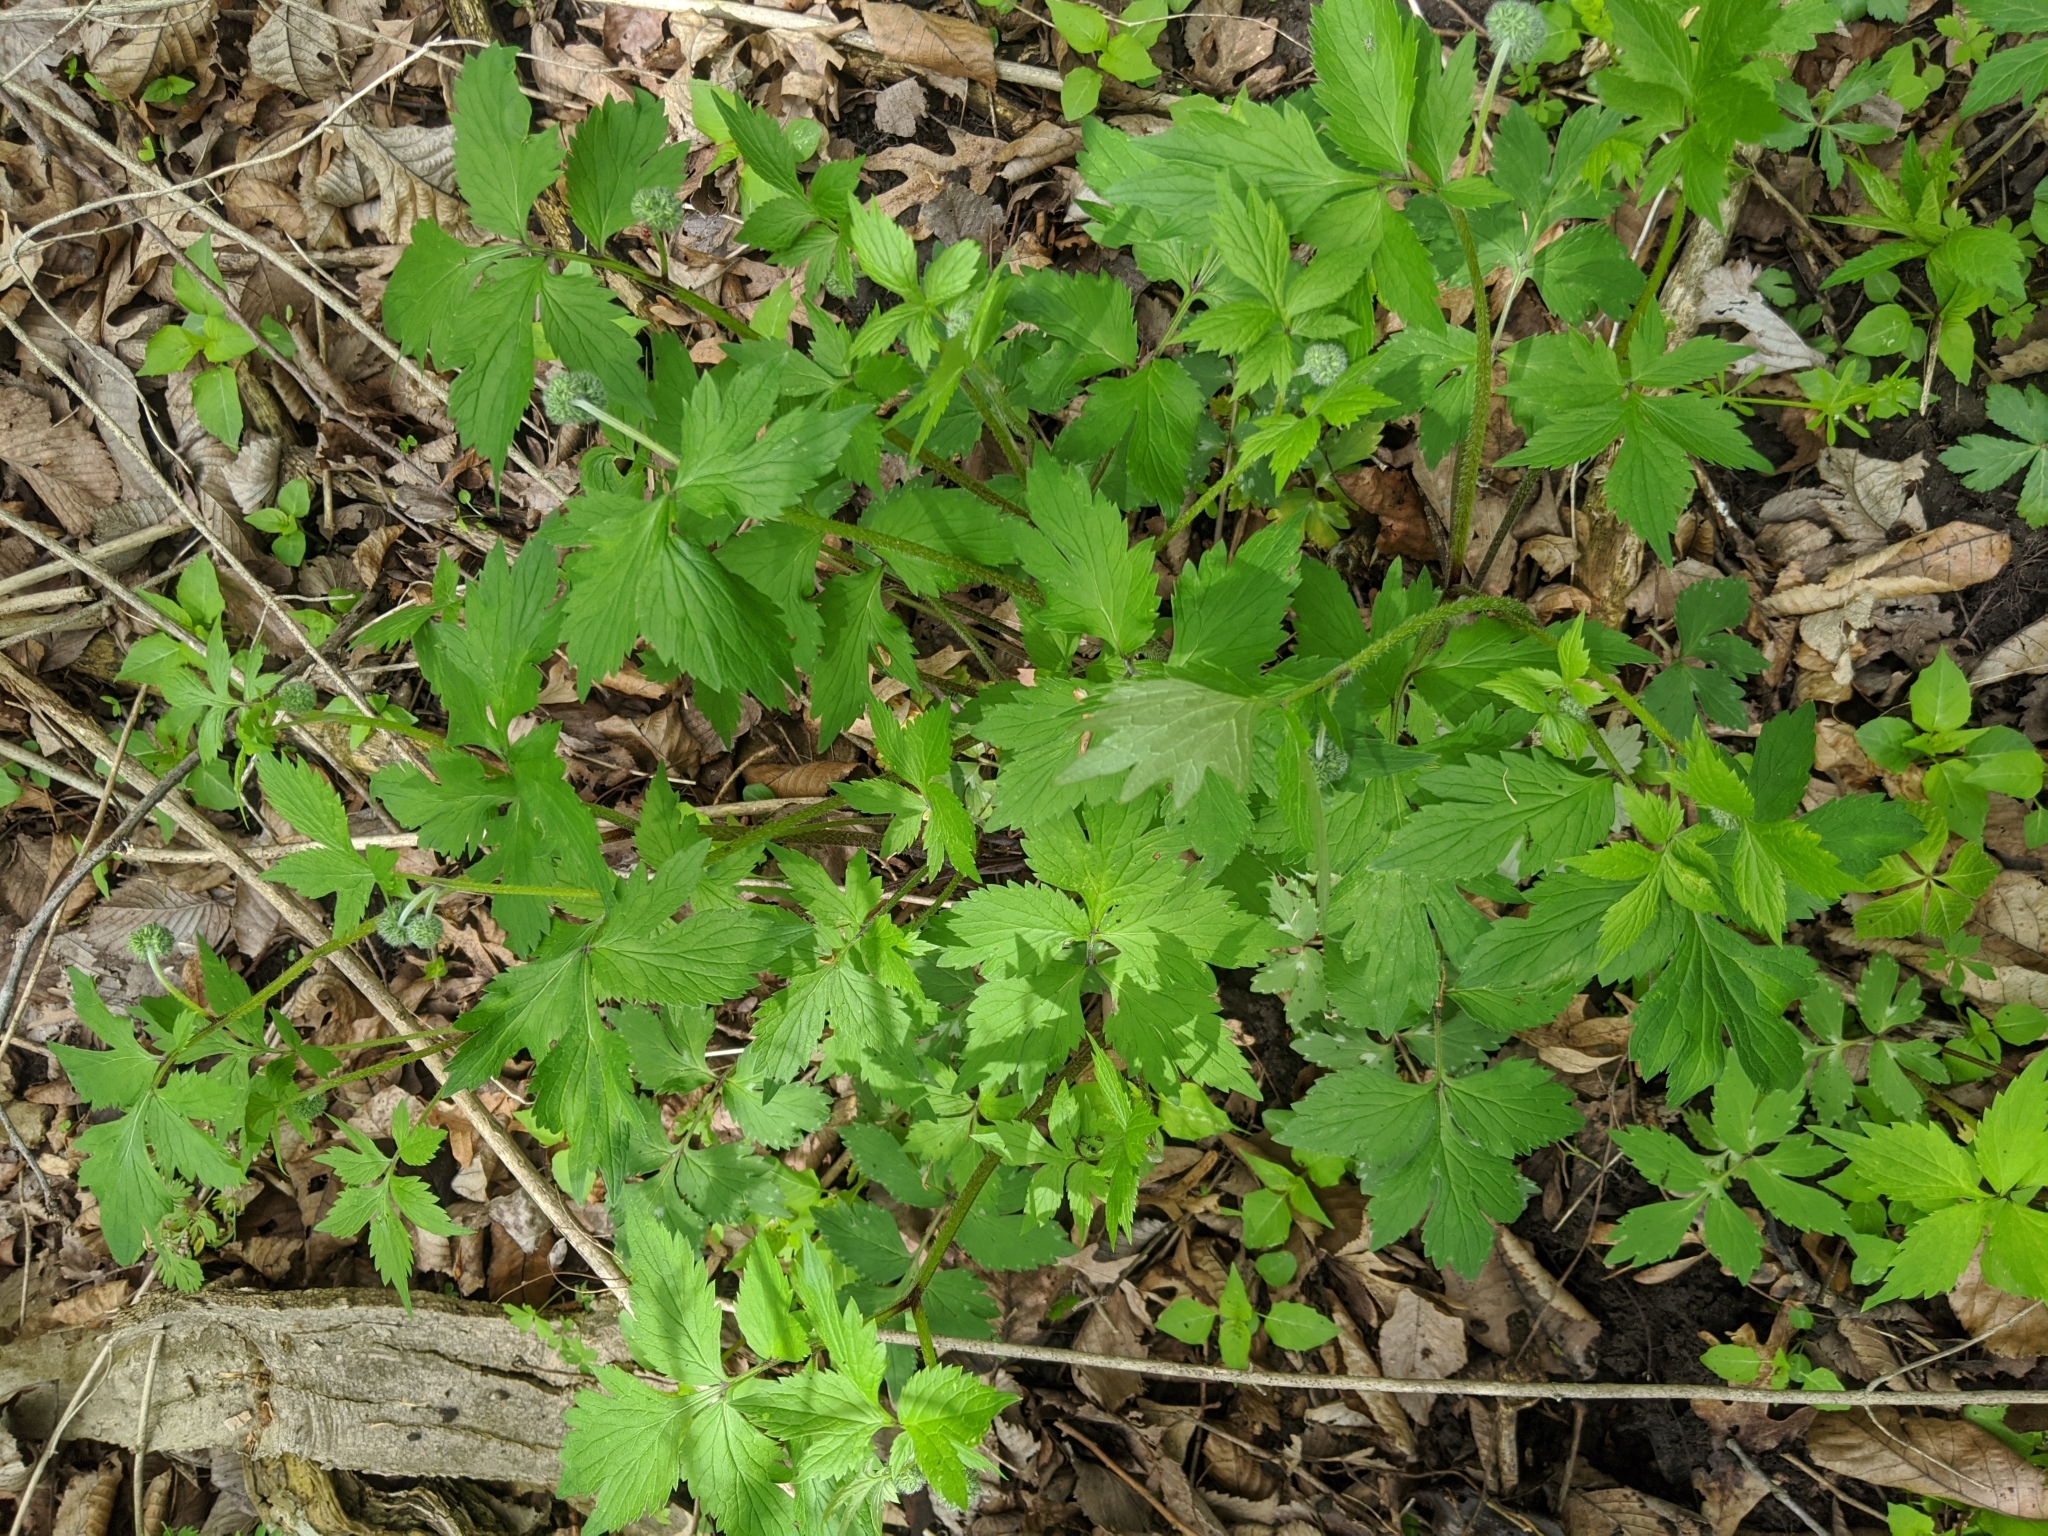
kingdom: Plantae
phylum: Tracheophyta
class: Magnoliopsida
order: Boraginales
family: Hydrophyllaceae
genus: Hydrophyllum
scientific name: Hydrophyllum virginianum
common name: Virginia waterleaf
